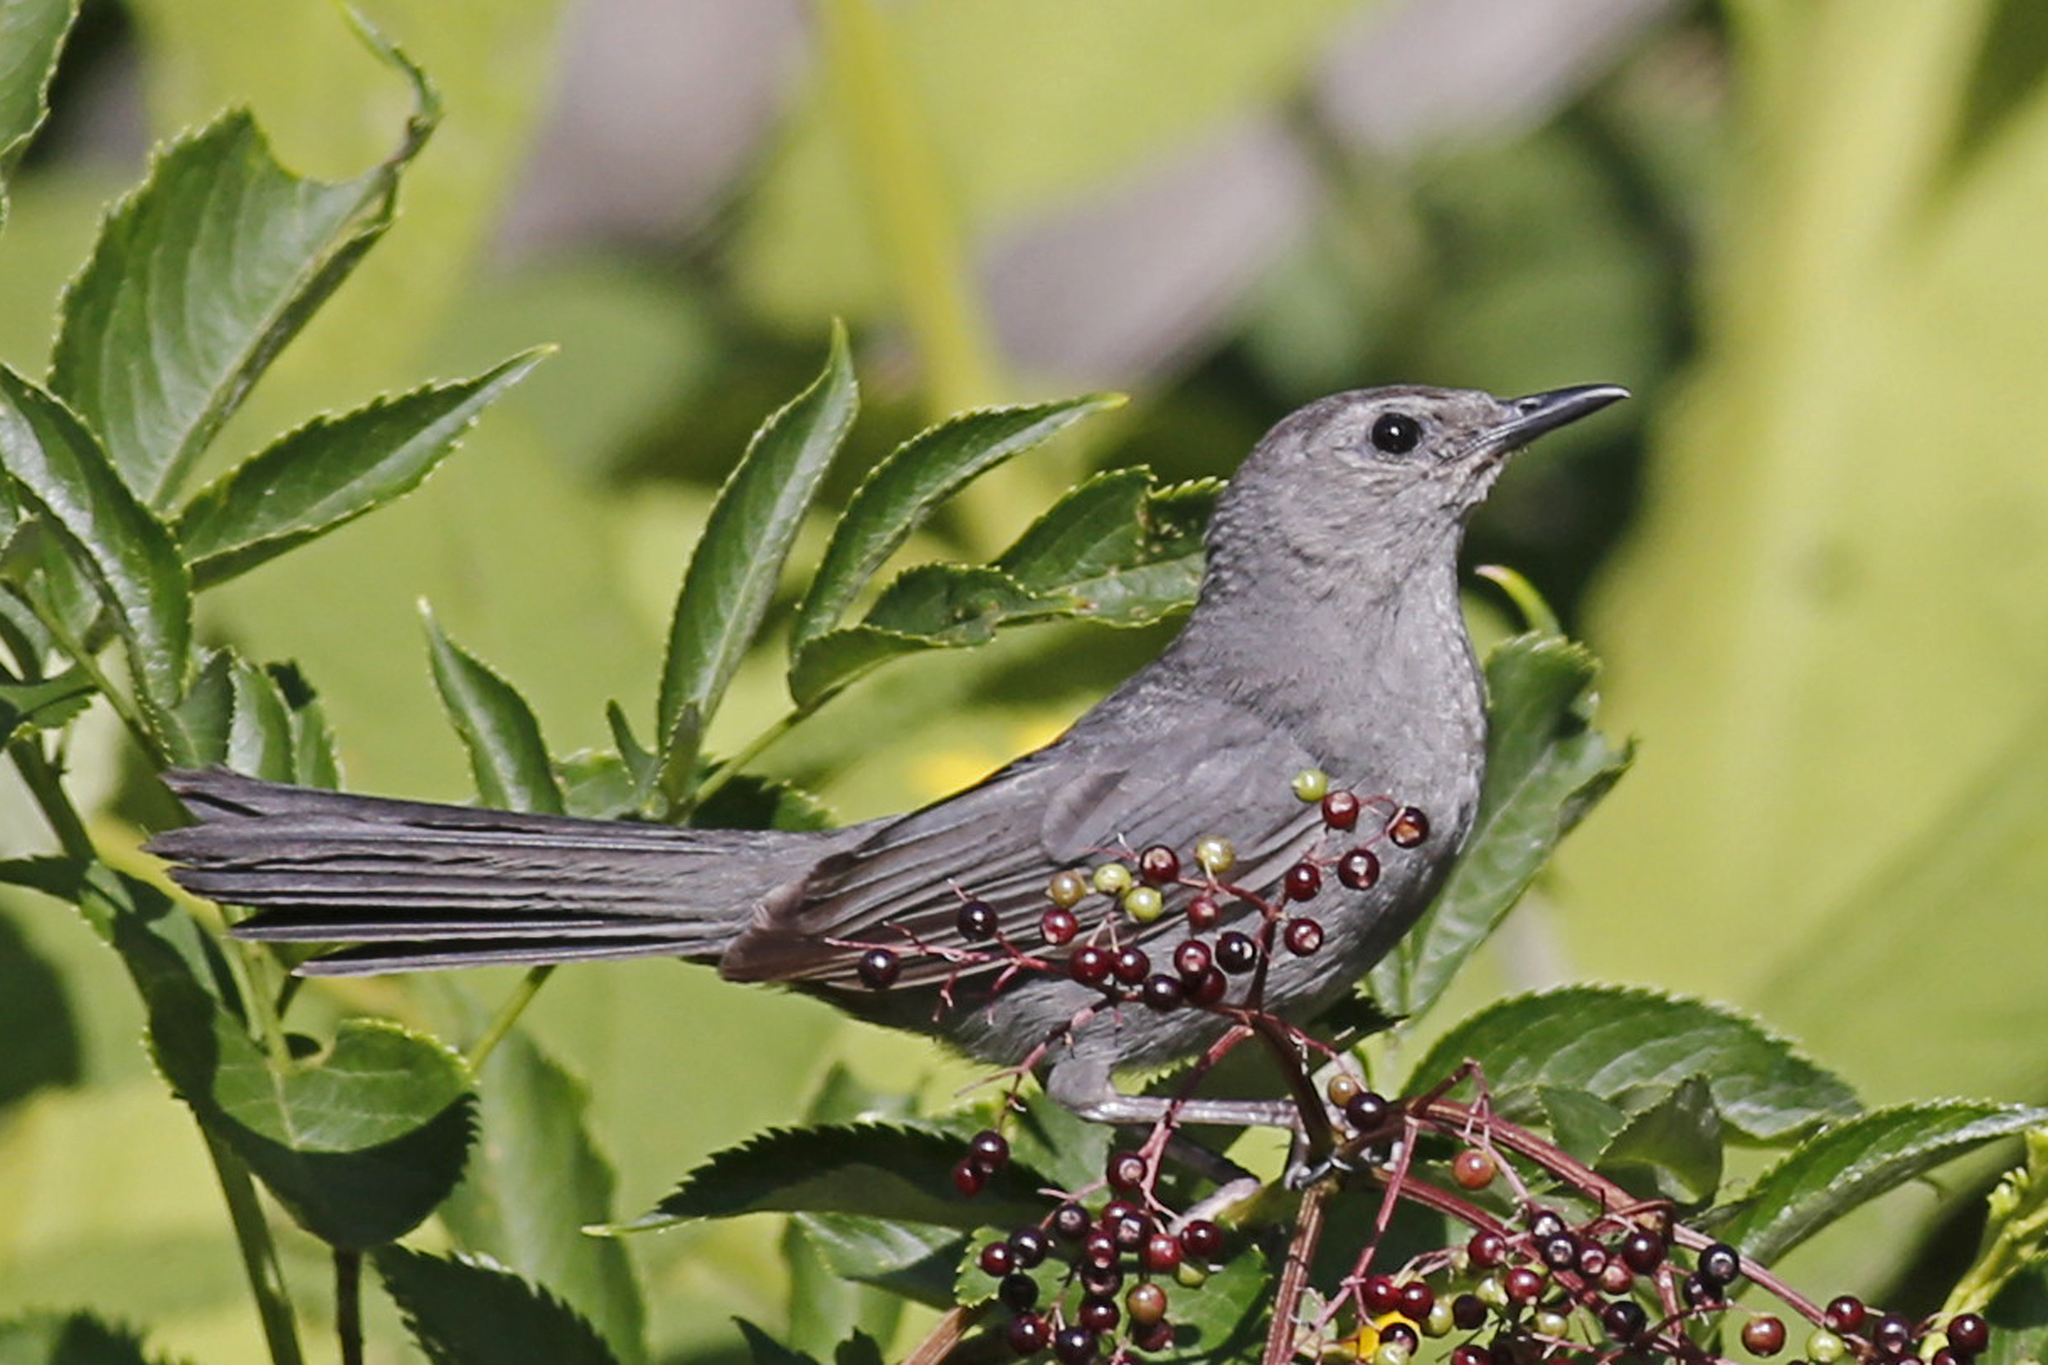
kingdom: Animalia
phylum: Chordata
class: Aves
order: Passeriformes
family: Mimidae
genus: Dumetella
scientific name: Dumetella carolinensis
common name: Gray catbird
